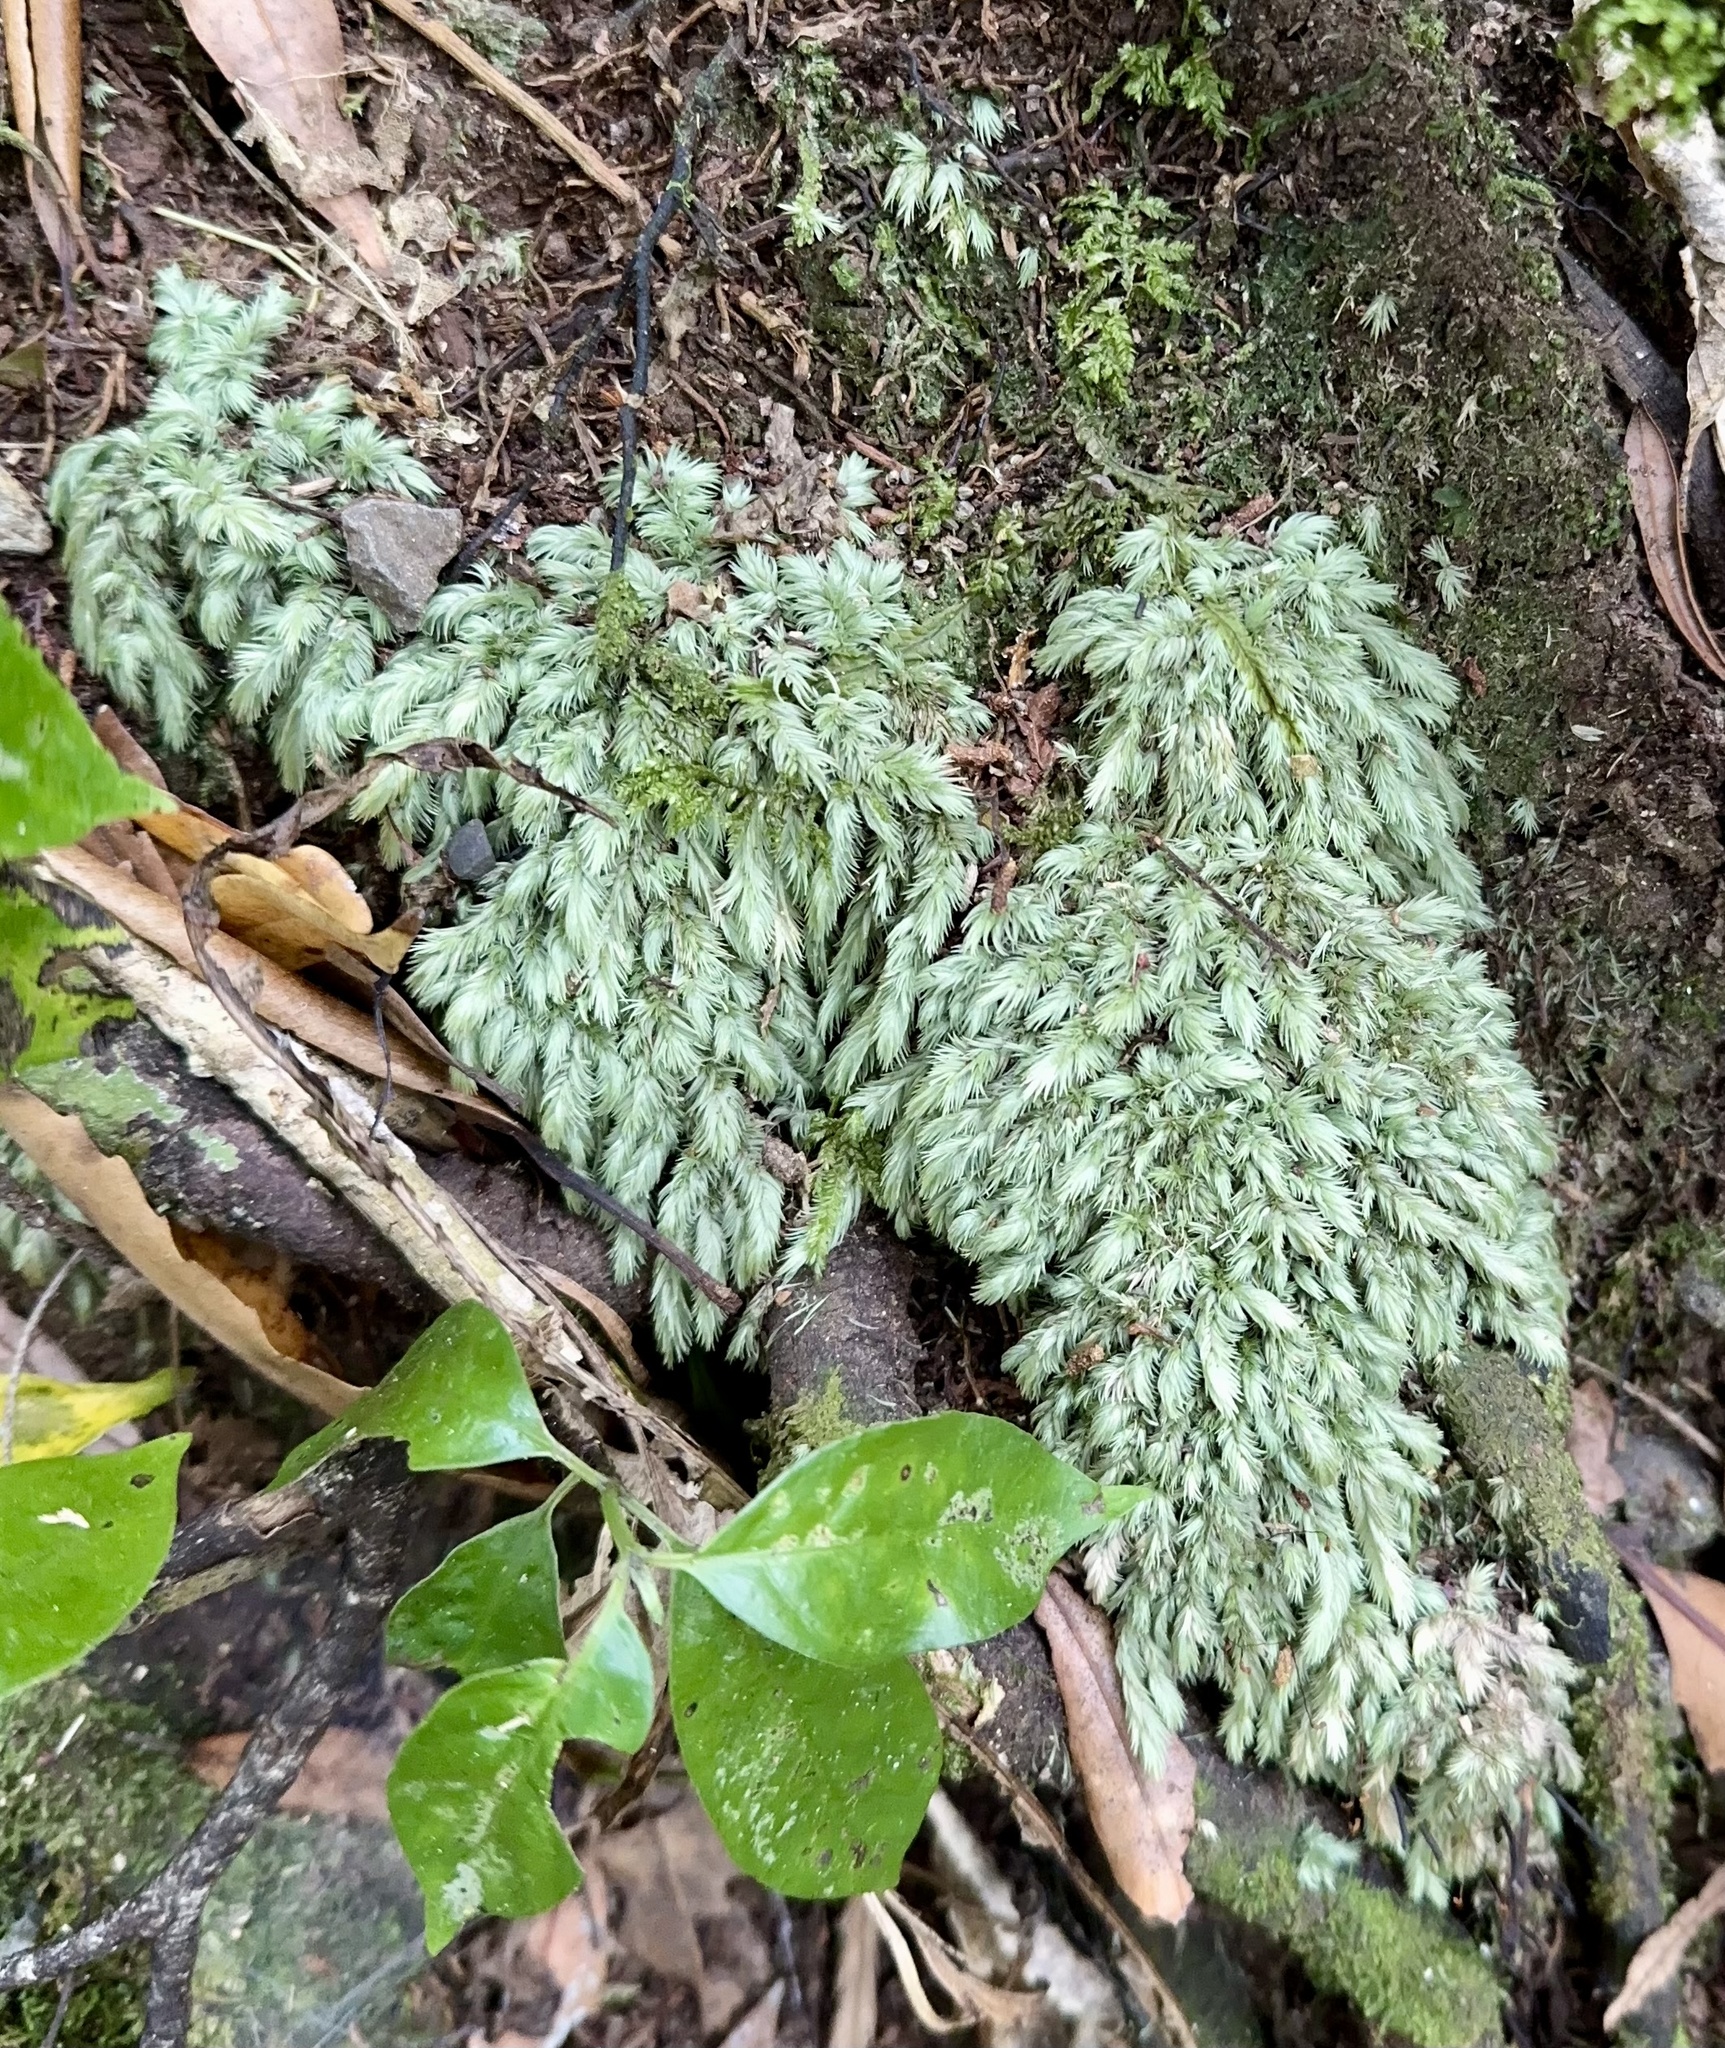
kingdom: Plantae
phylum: Bryophyta
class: Bryopsida
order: Dicranales
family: Leucobryaceae
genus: Leucobryum
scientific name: Leucobryum javense
